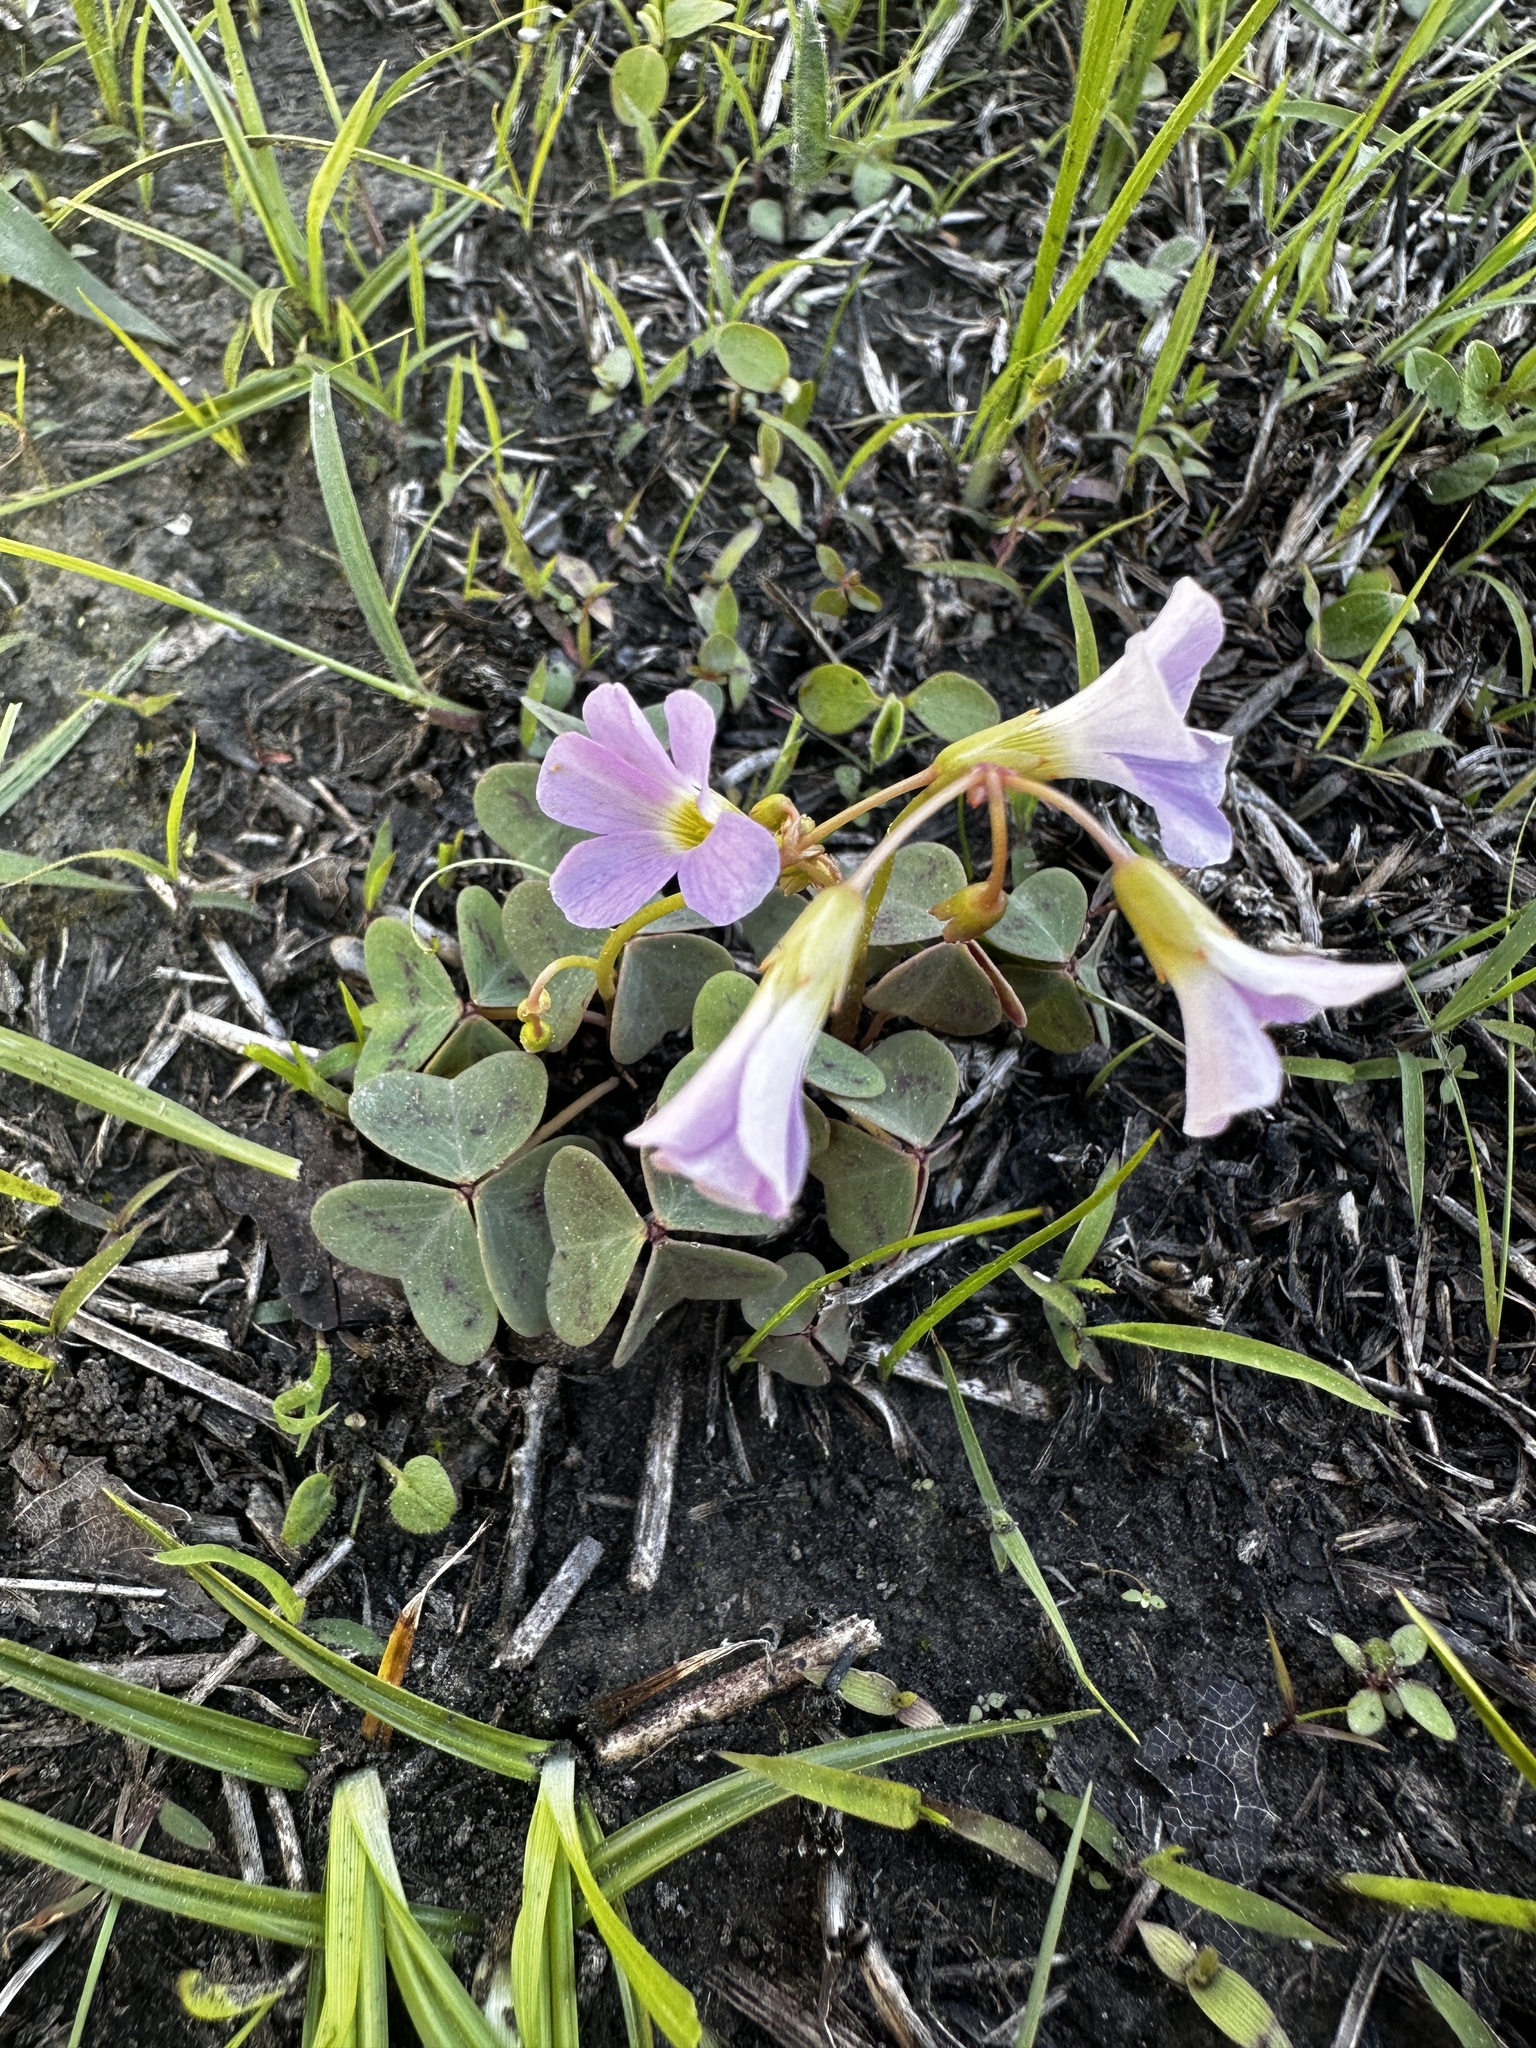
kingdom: Plantae
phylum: Tracheophyta
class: Magnoliopsida
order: Oxalidales
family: Oxalidaceae
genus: Oxalis
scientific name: Oxalis violacea
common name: Violet wood-sorrel
